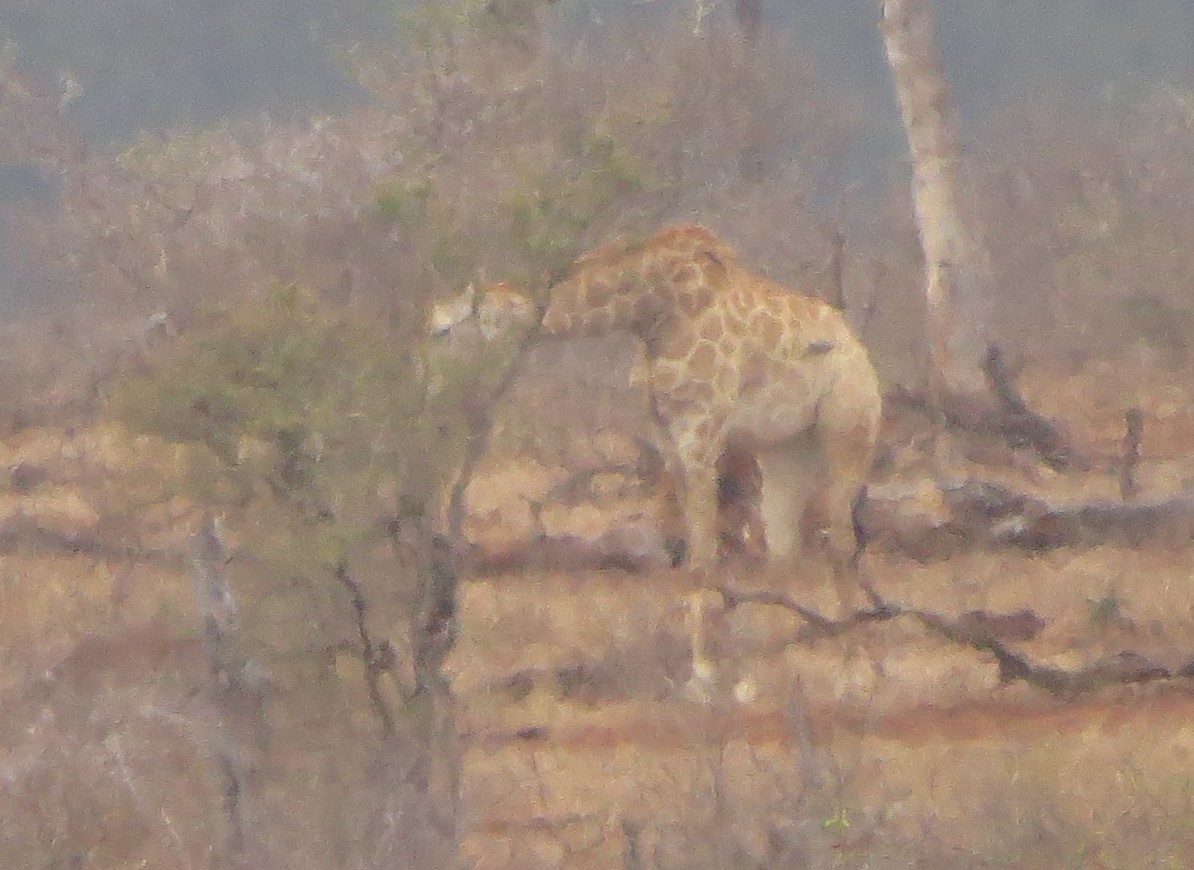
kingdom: Animalia
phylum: Chordata
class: Mammalia
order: Artiodactyla
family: Giraffidae
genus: Giraffa
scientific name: Giraffa giraffa
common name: Southern giraffe
